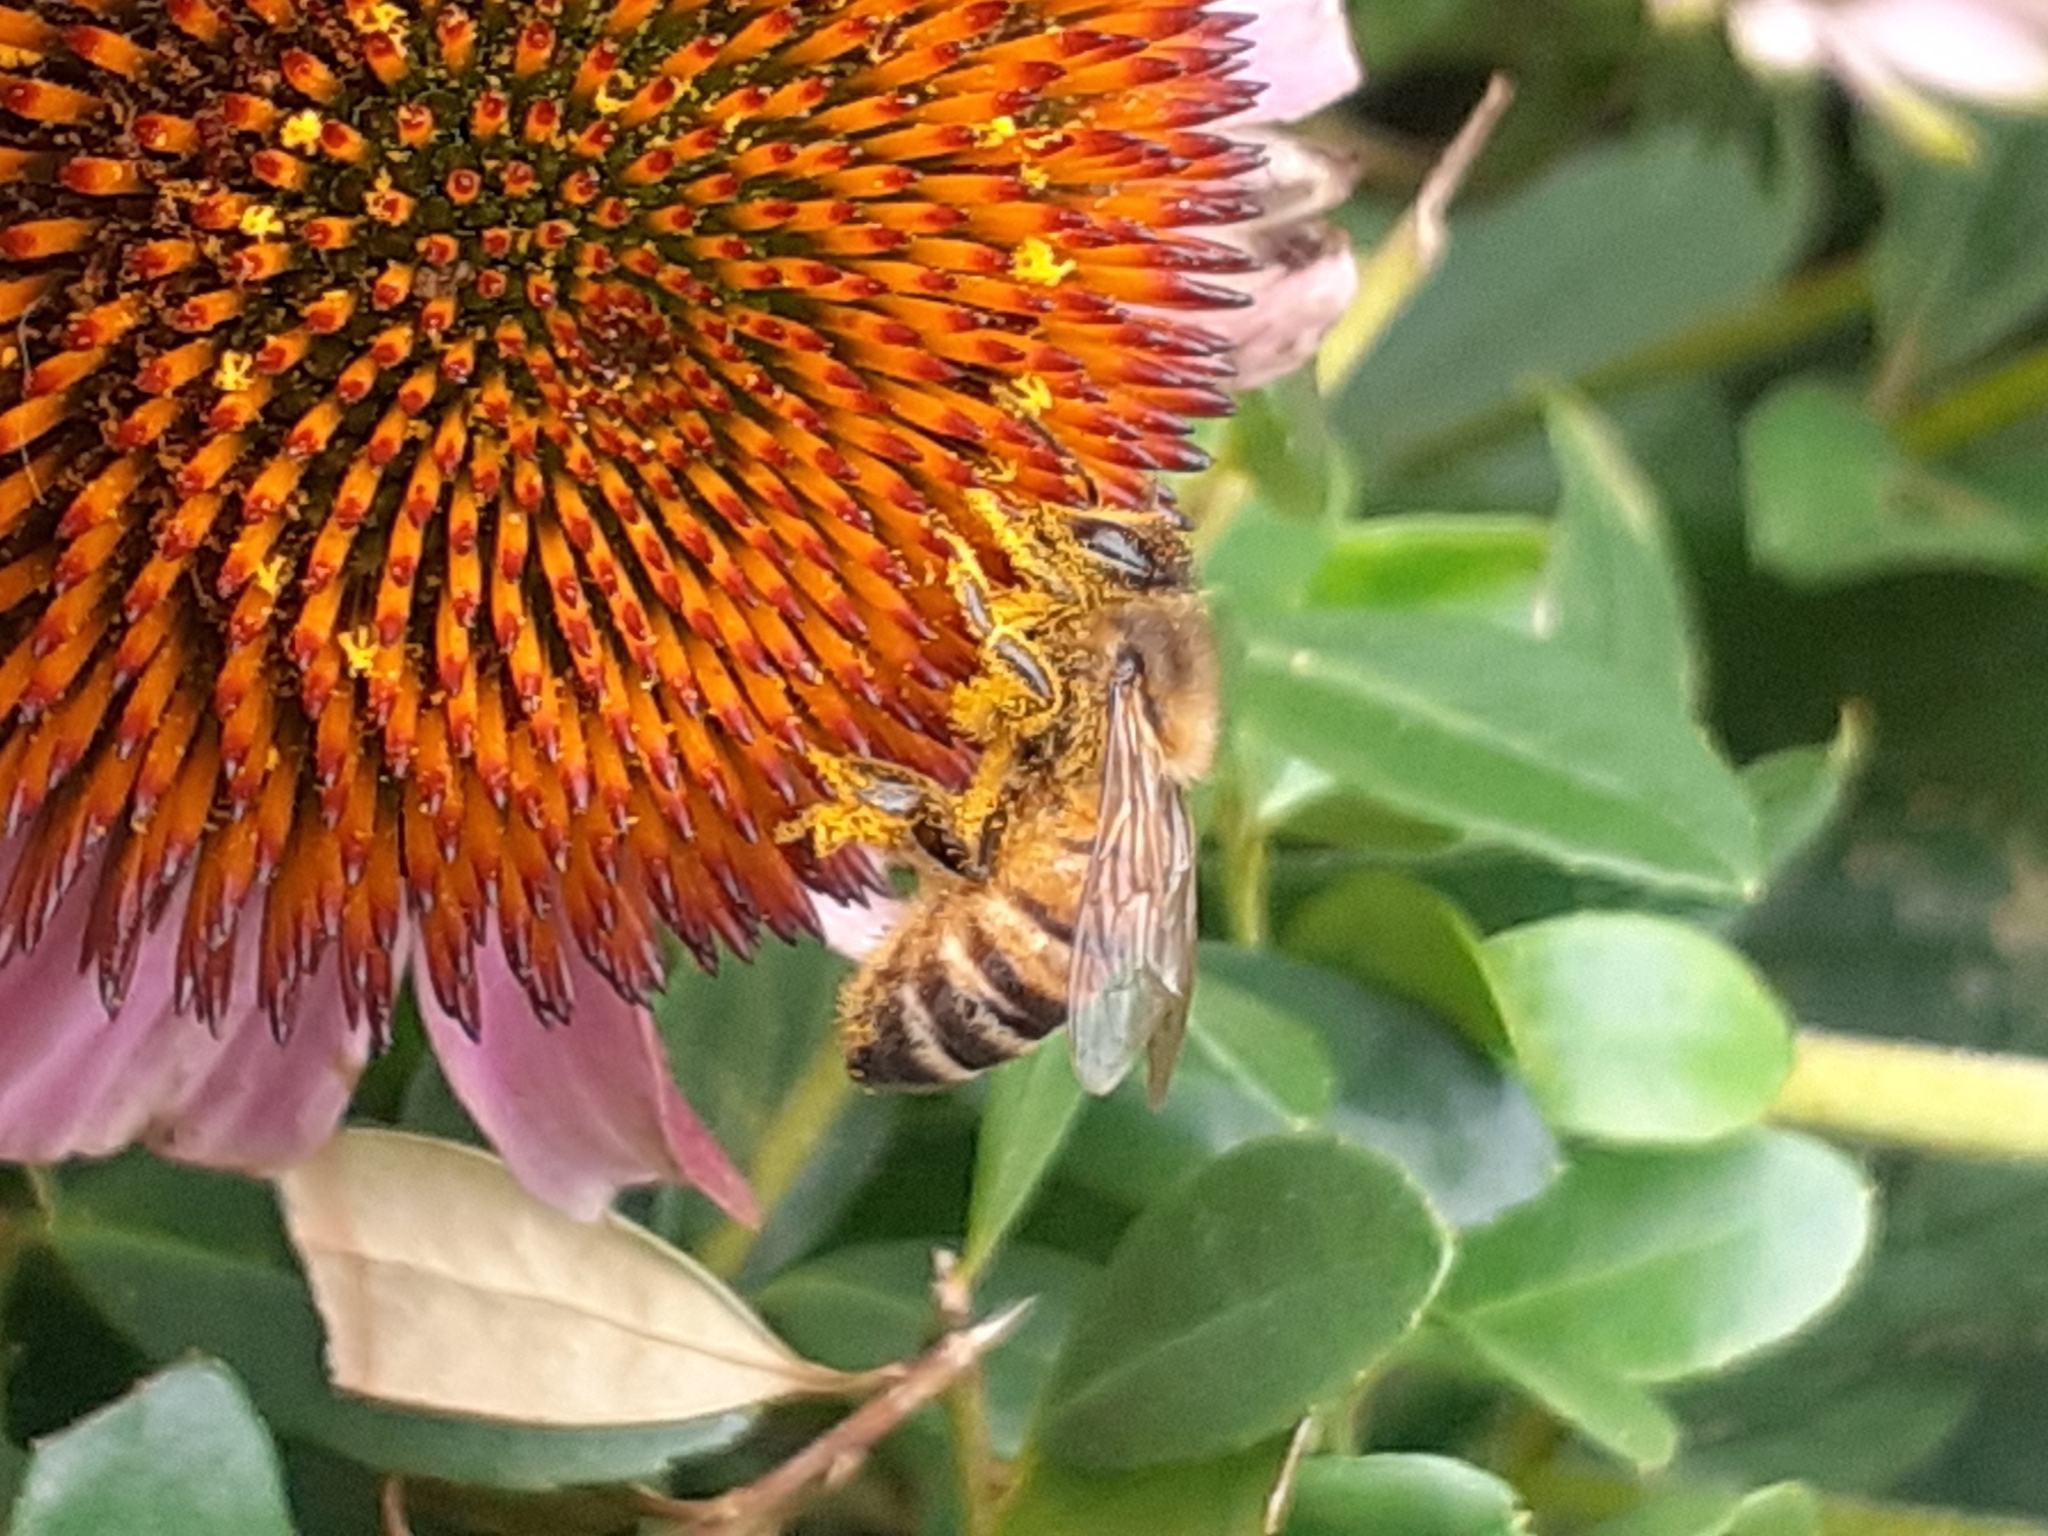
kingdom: Animalia
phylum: Arthropoda
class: Insecta
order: Hymenoptera
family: Apidae
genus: Apis
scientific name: Apis mellifera
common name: Honey bee
